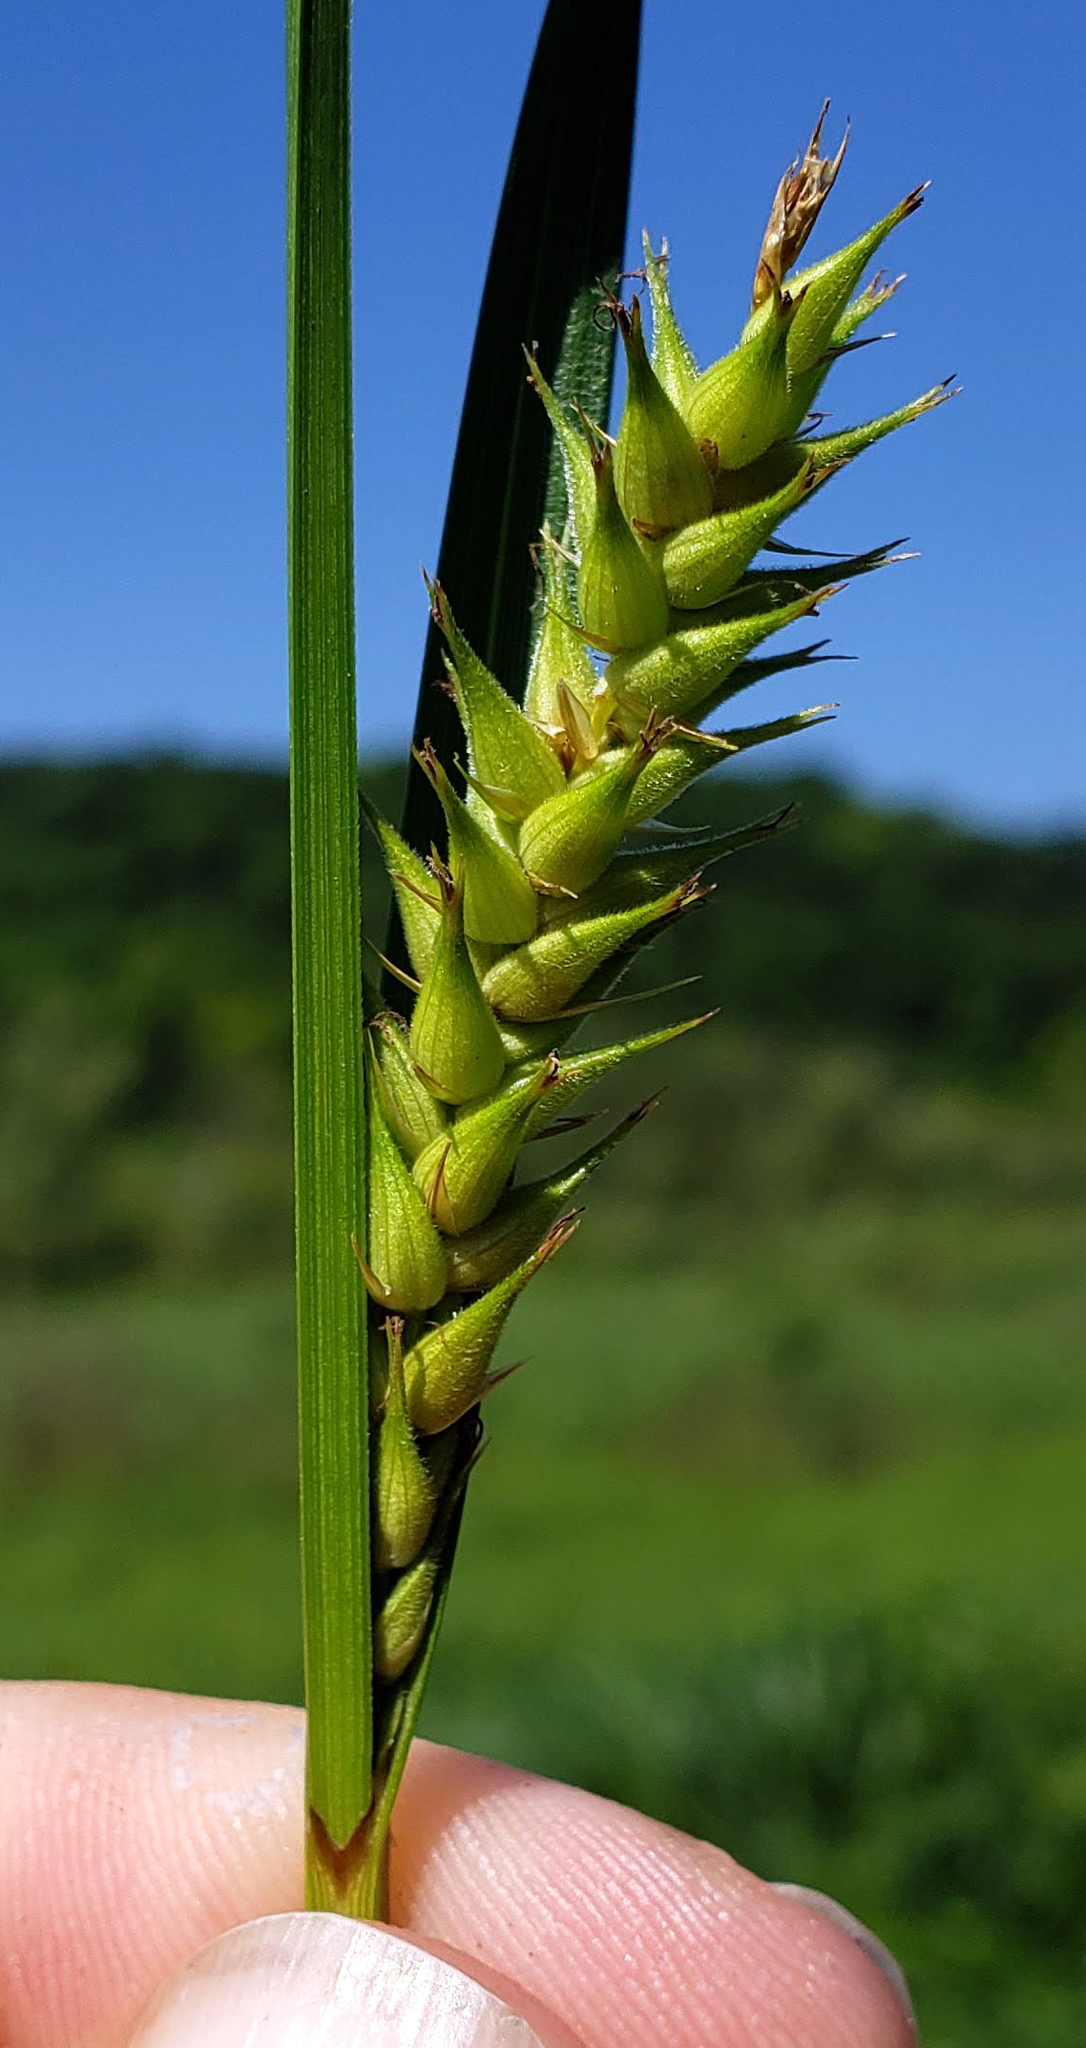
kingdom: Plantae
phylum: Tracheophyta
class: Liliopsida
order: Poales
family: Cyperaceae
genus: Carex
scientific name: Carex trichocarpa
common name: Hairy-fruited lake sedge
